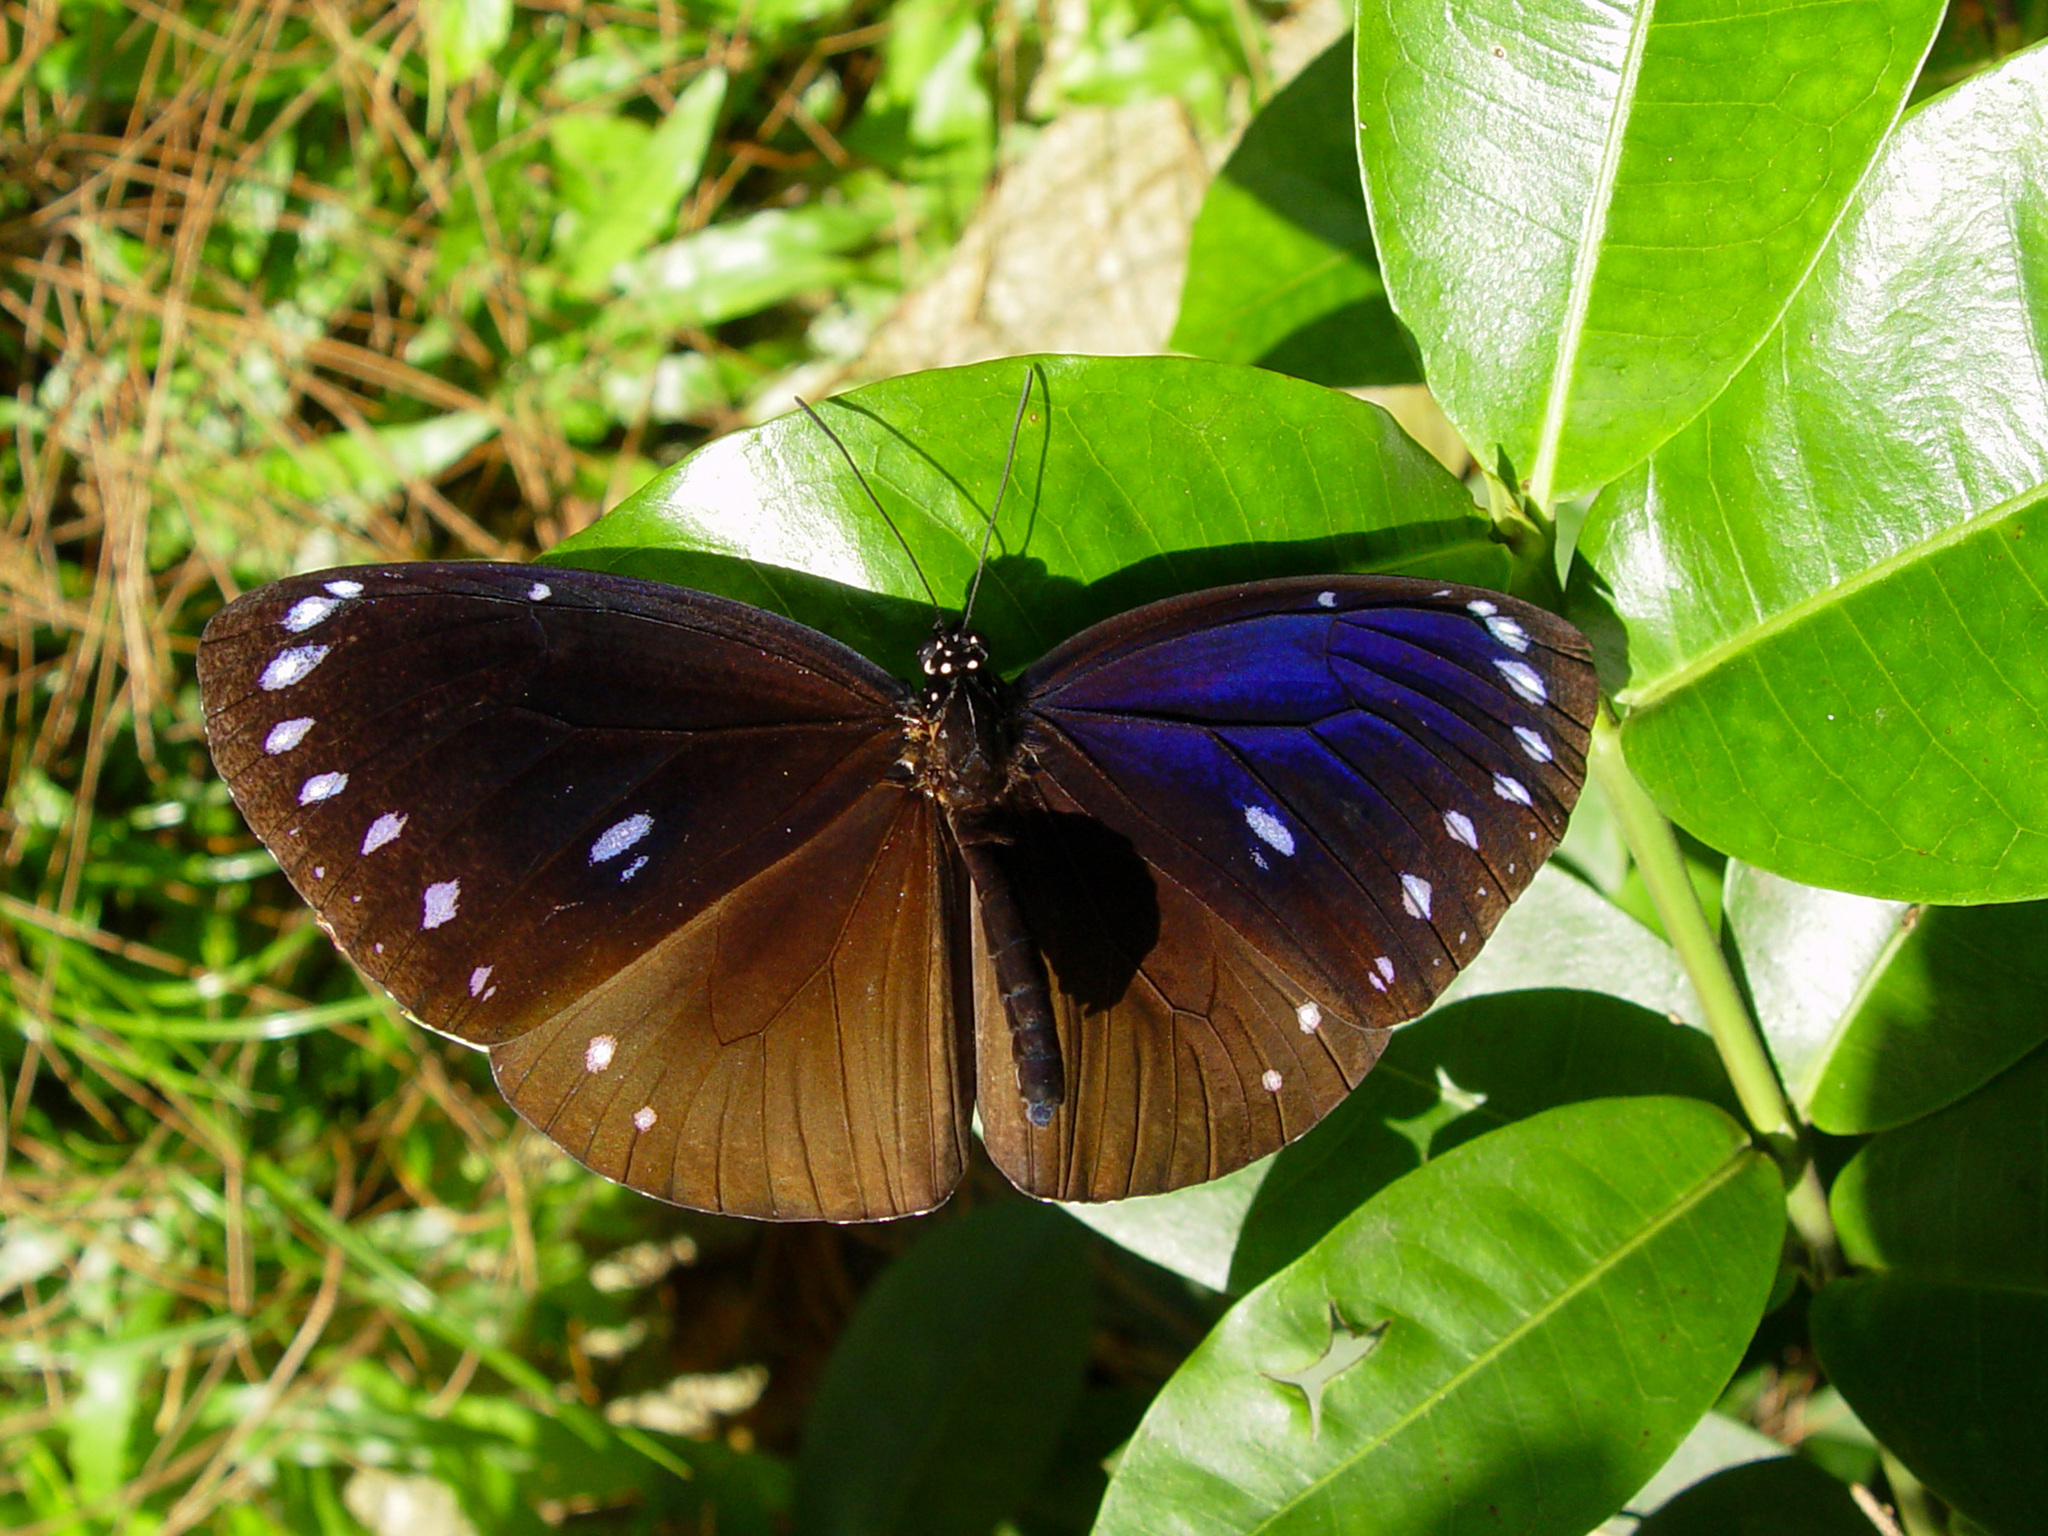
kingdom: Animalia
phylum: Arthropoda
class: Insecta
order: Lepidoptera
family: Nymphalidae
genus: Euploea
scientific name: Euploea eunice
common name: Blue-banded king crow butterfly
